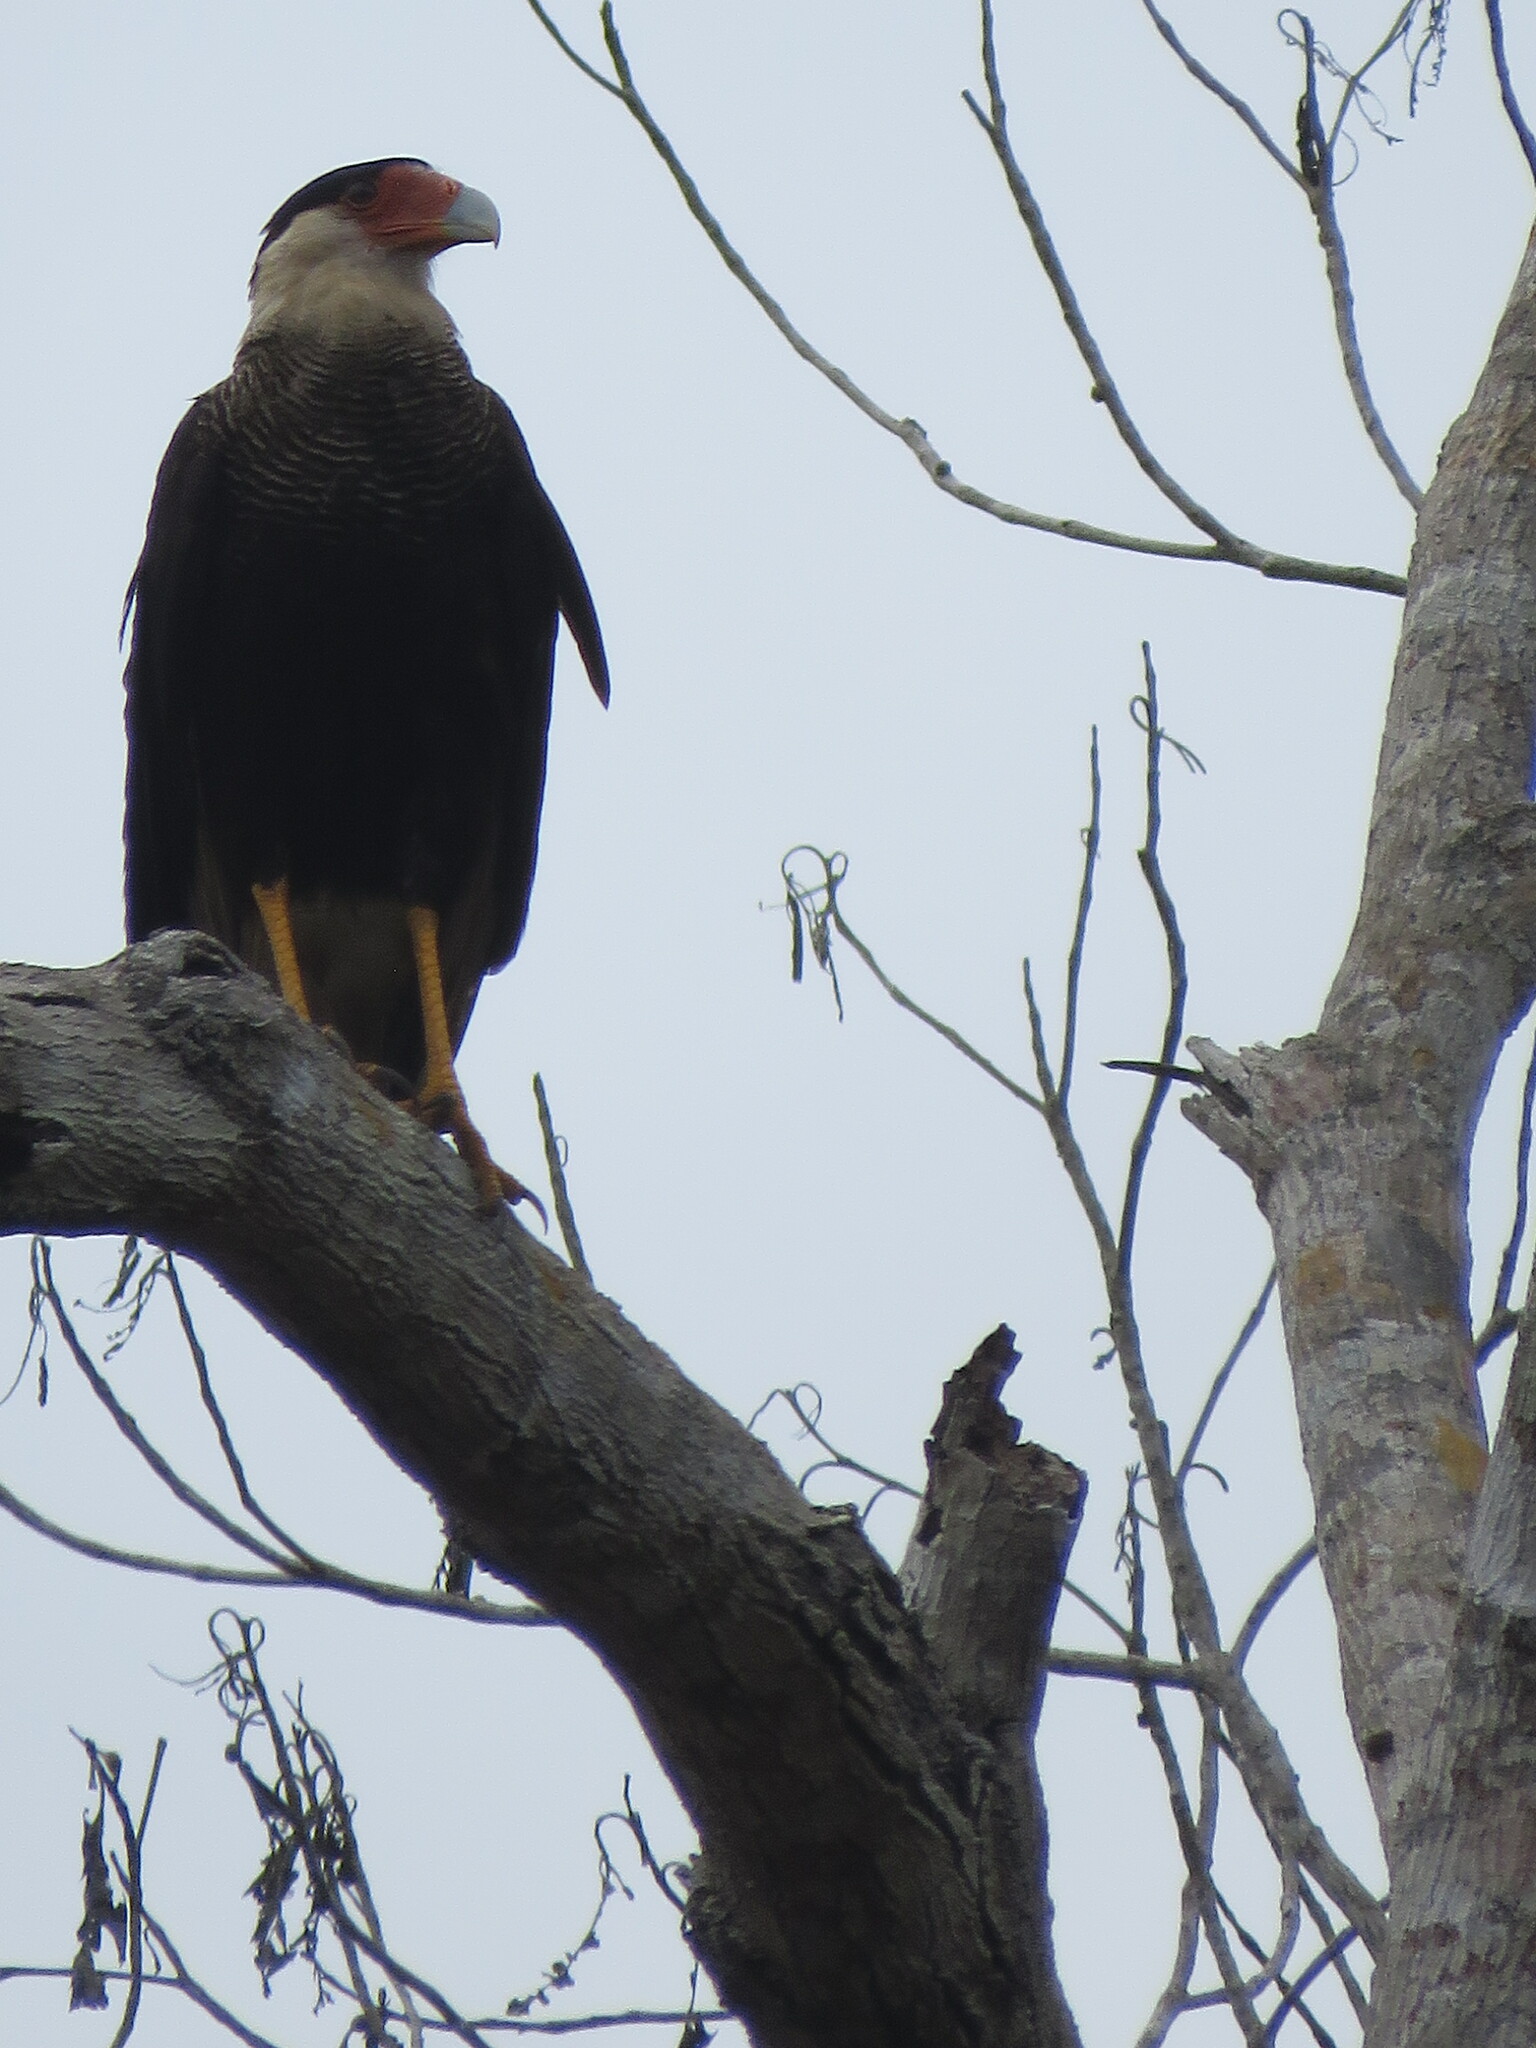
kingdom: Animalia
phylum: Chordata
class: Aves
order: Falconiformes
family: Falconidae
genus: Caracara
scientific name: Caracara plancus
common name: Southern caracara
